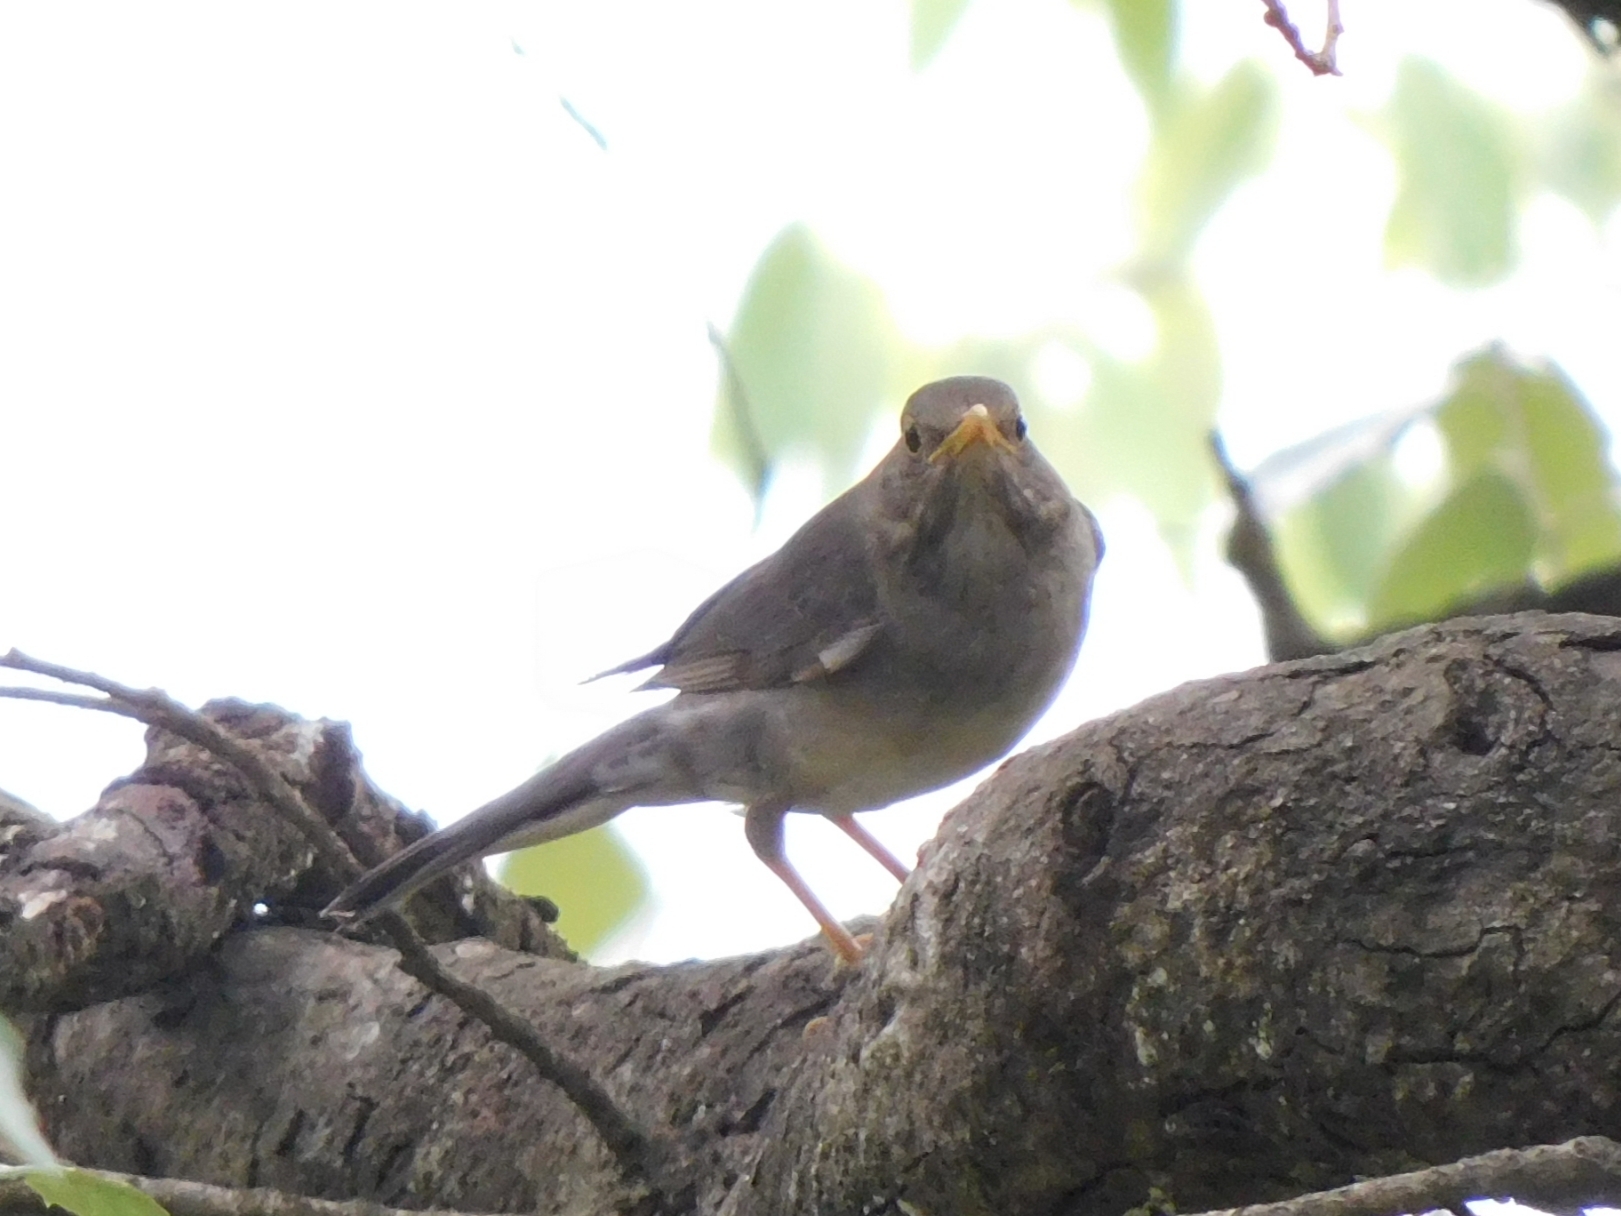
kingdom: Animalia
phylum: Chordata
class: Aves
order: Passeriformes
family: Turdidae
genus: Turdus
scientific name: Turdus unicolor
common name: Tickell's thrush
